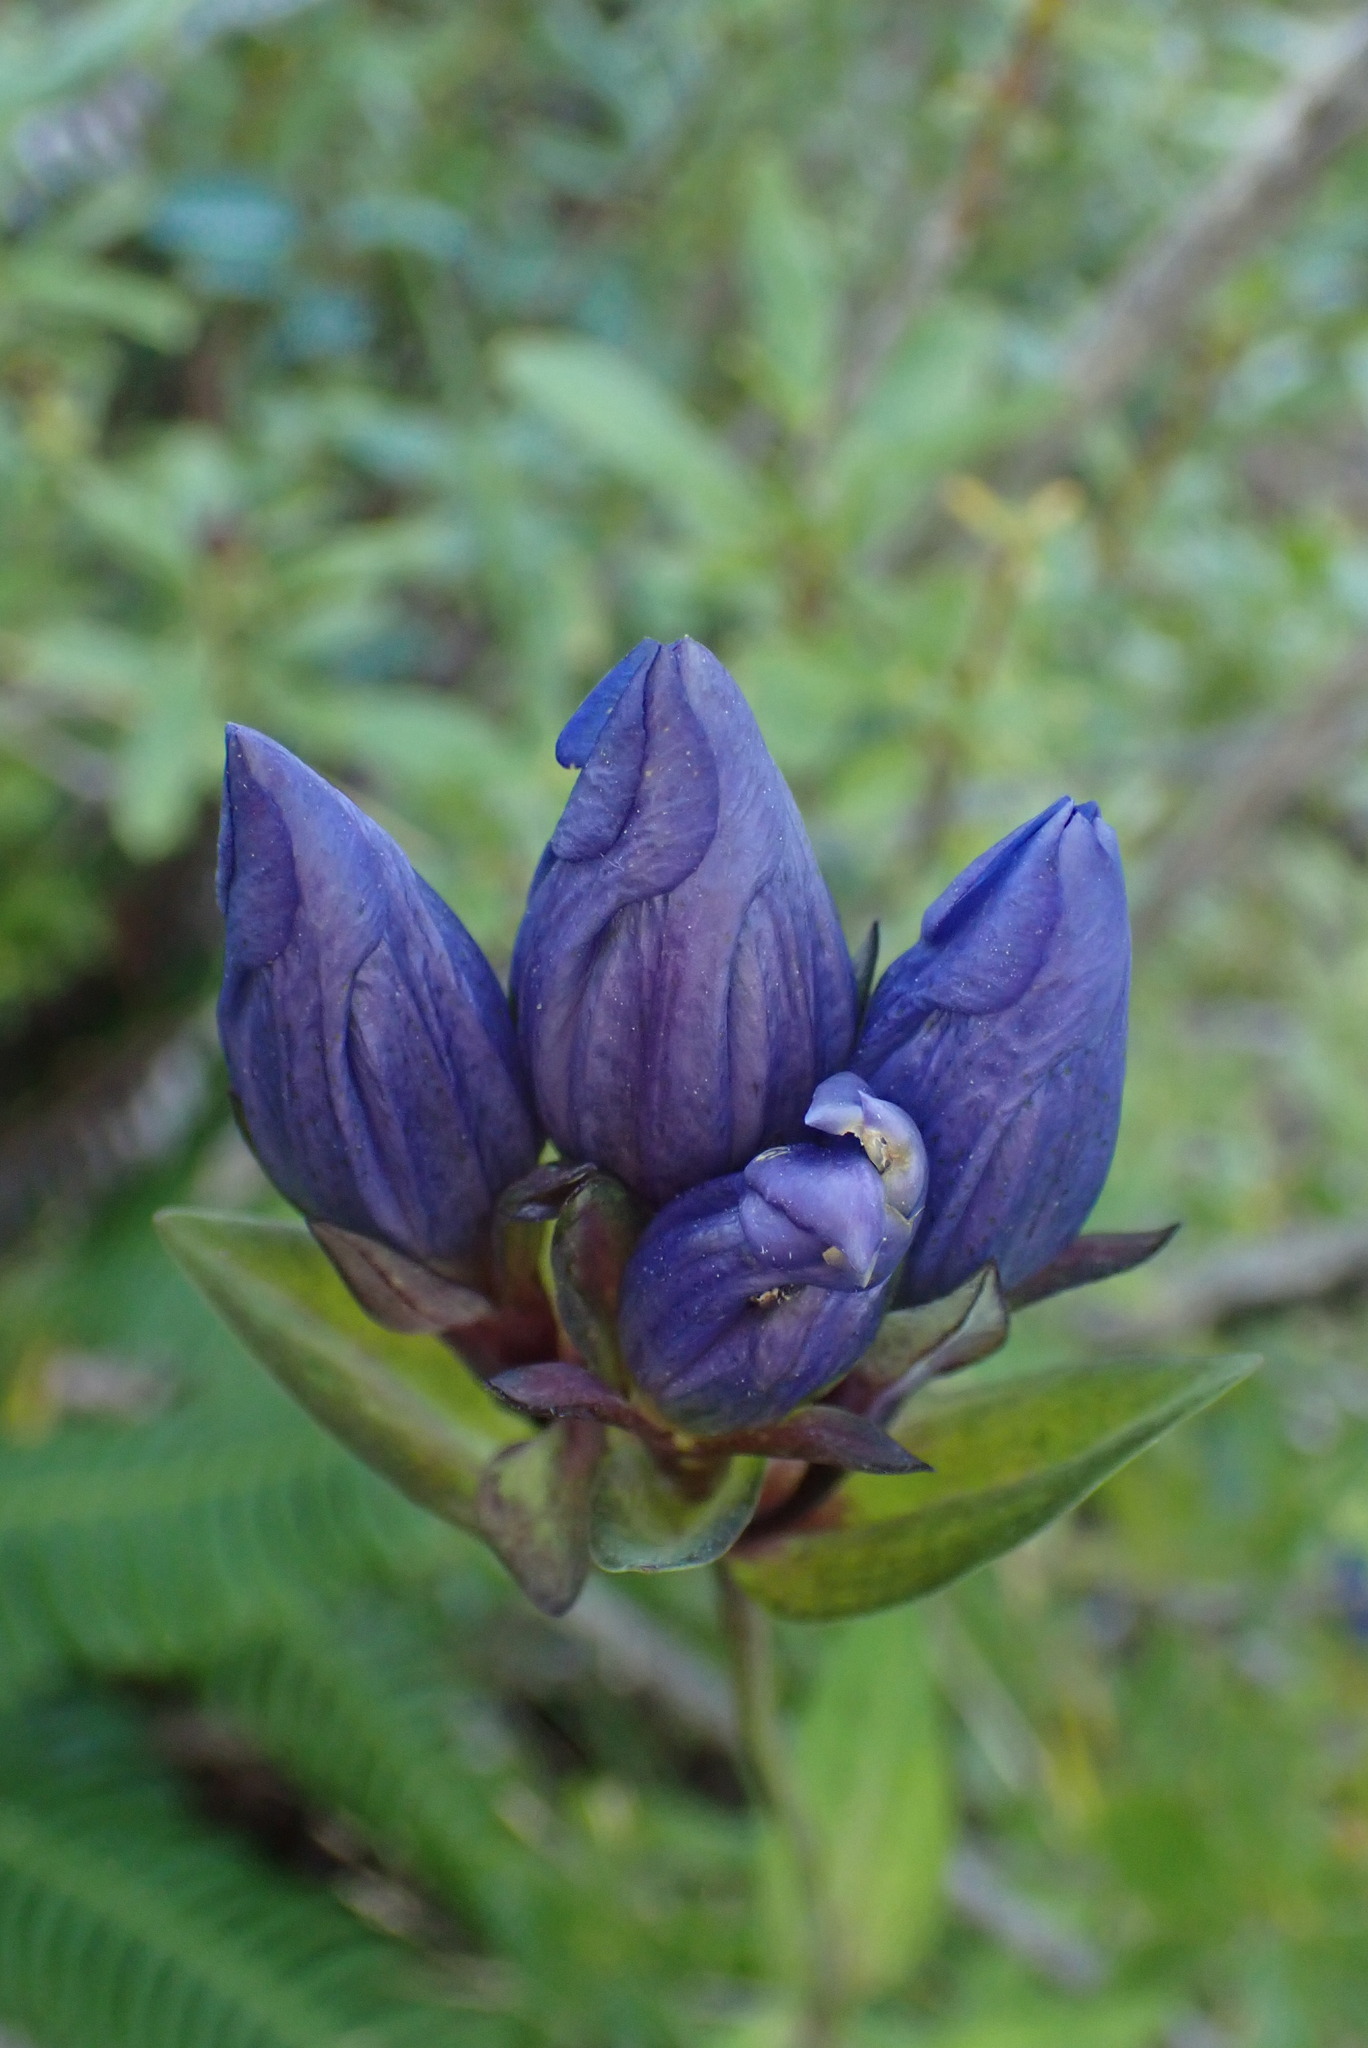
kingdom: Plantae
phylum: Tracheophyta
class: Magnoliopsida
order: Gentianales
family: Gentianaceae
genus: Gentiana
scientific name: Gentiana sceptrum
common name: Pacific gentian
